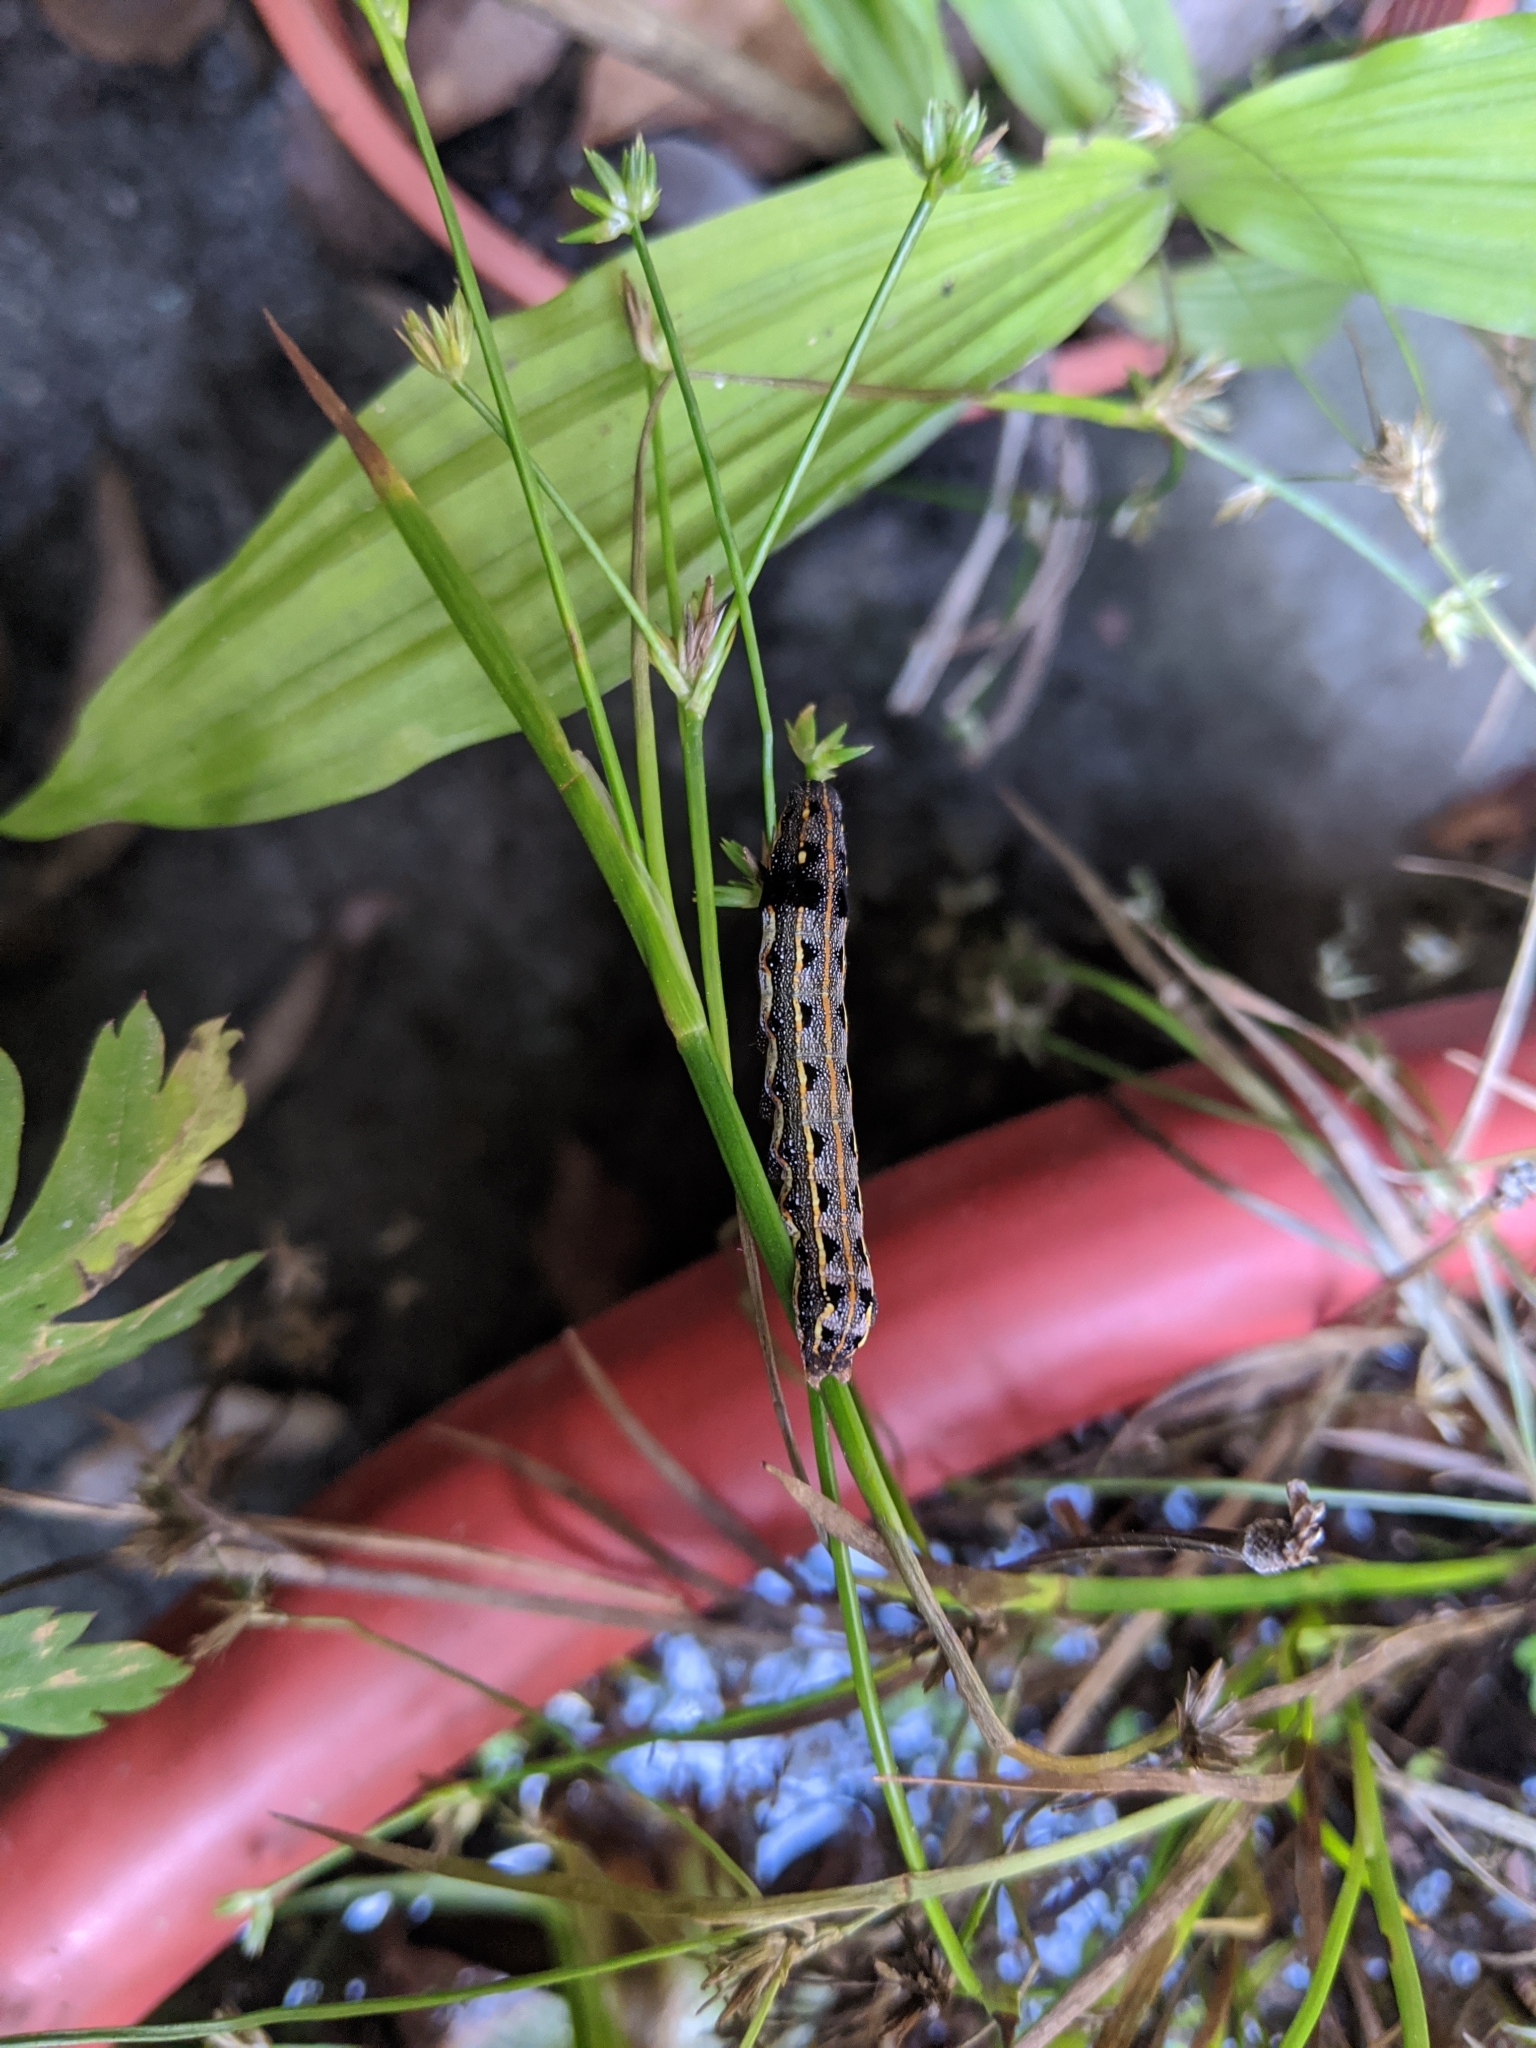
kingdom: Animalia
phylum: Arthropoda
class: Insecta
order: Lepidoptera
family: Noctuidae
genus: Spodoptera
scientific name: Spodoptera litura
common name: Asian cotton leafworm
